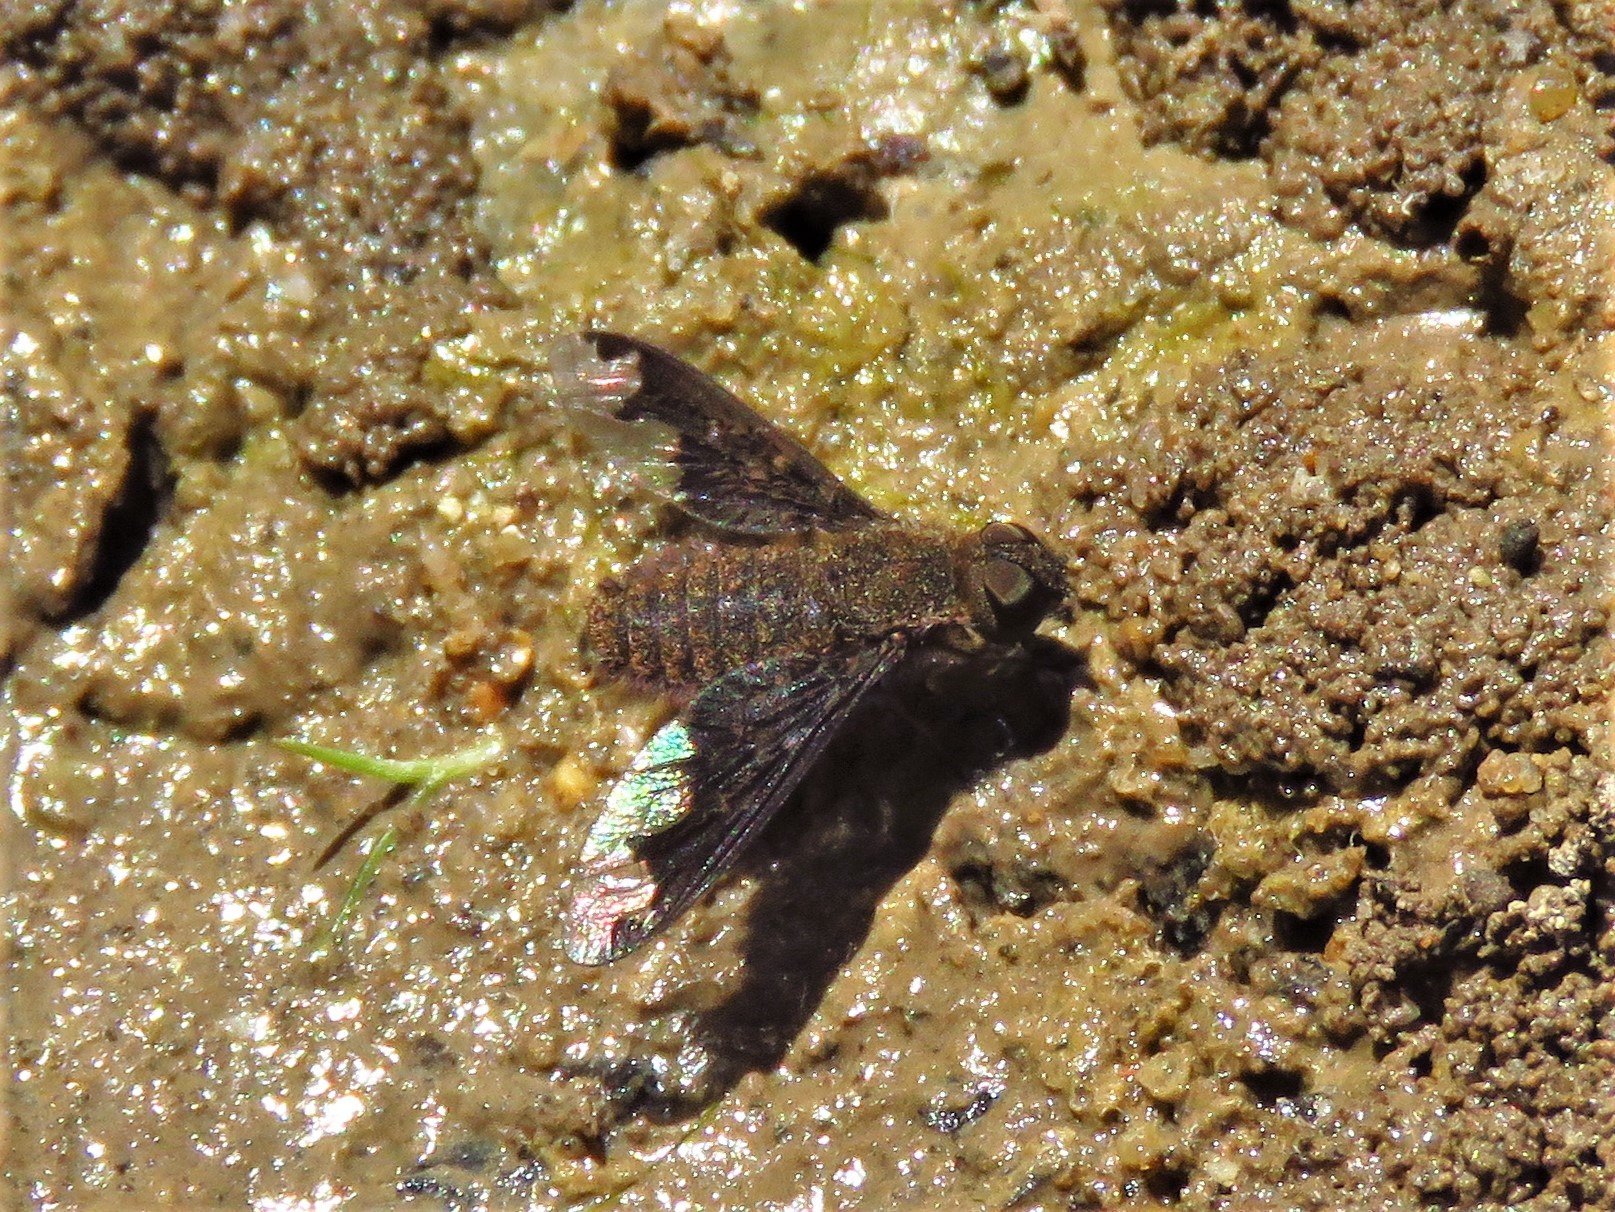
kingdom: Animalia
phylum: Arthropoda
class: Insecta
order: Diptera
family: Bombyliidae
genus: Hemipenthes
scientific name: Hemipenthes sinuosus
